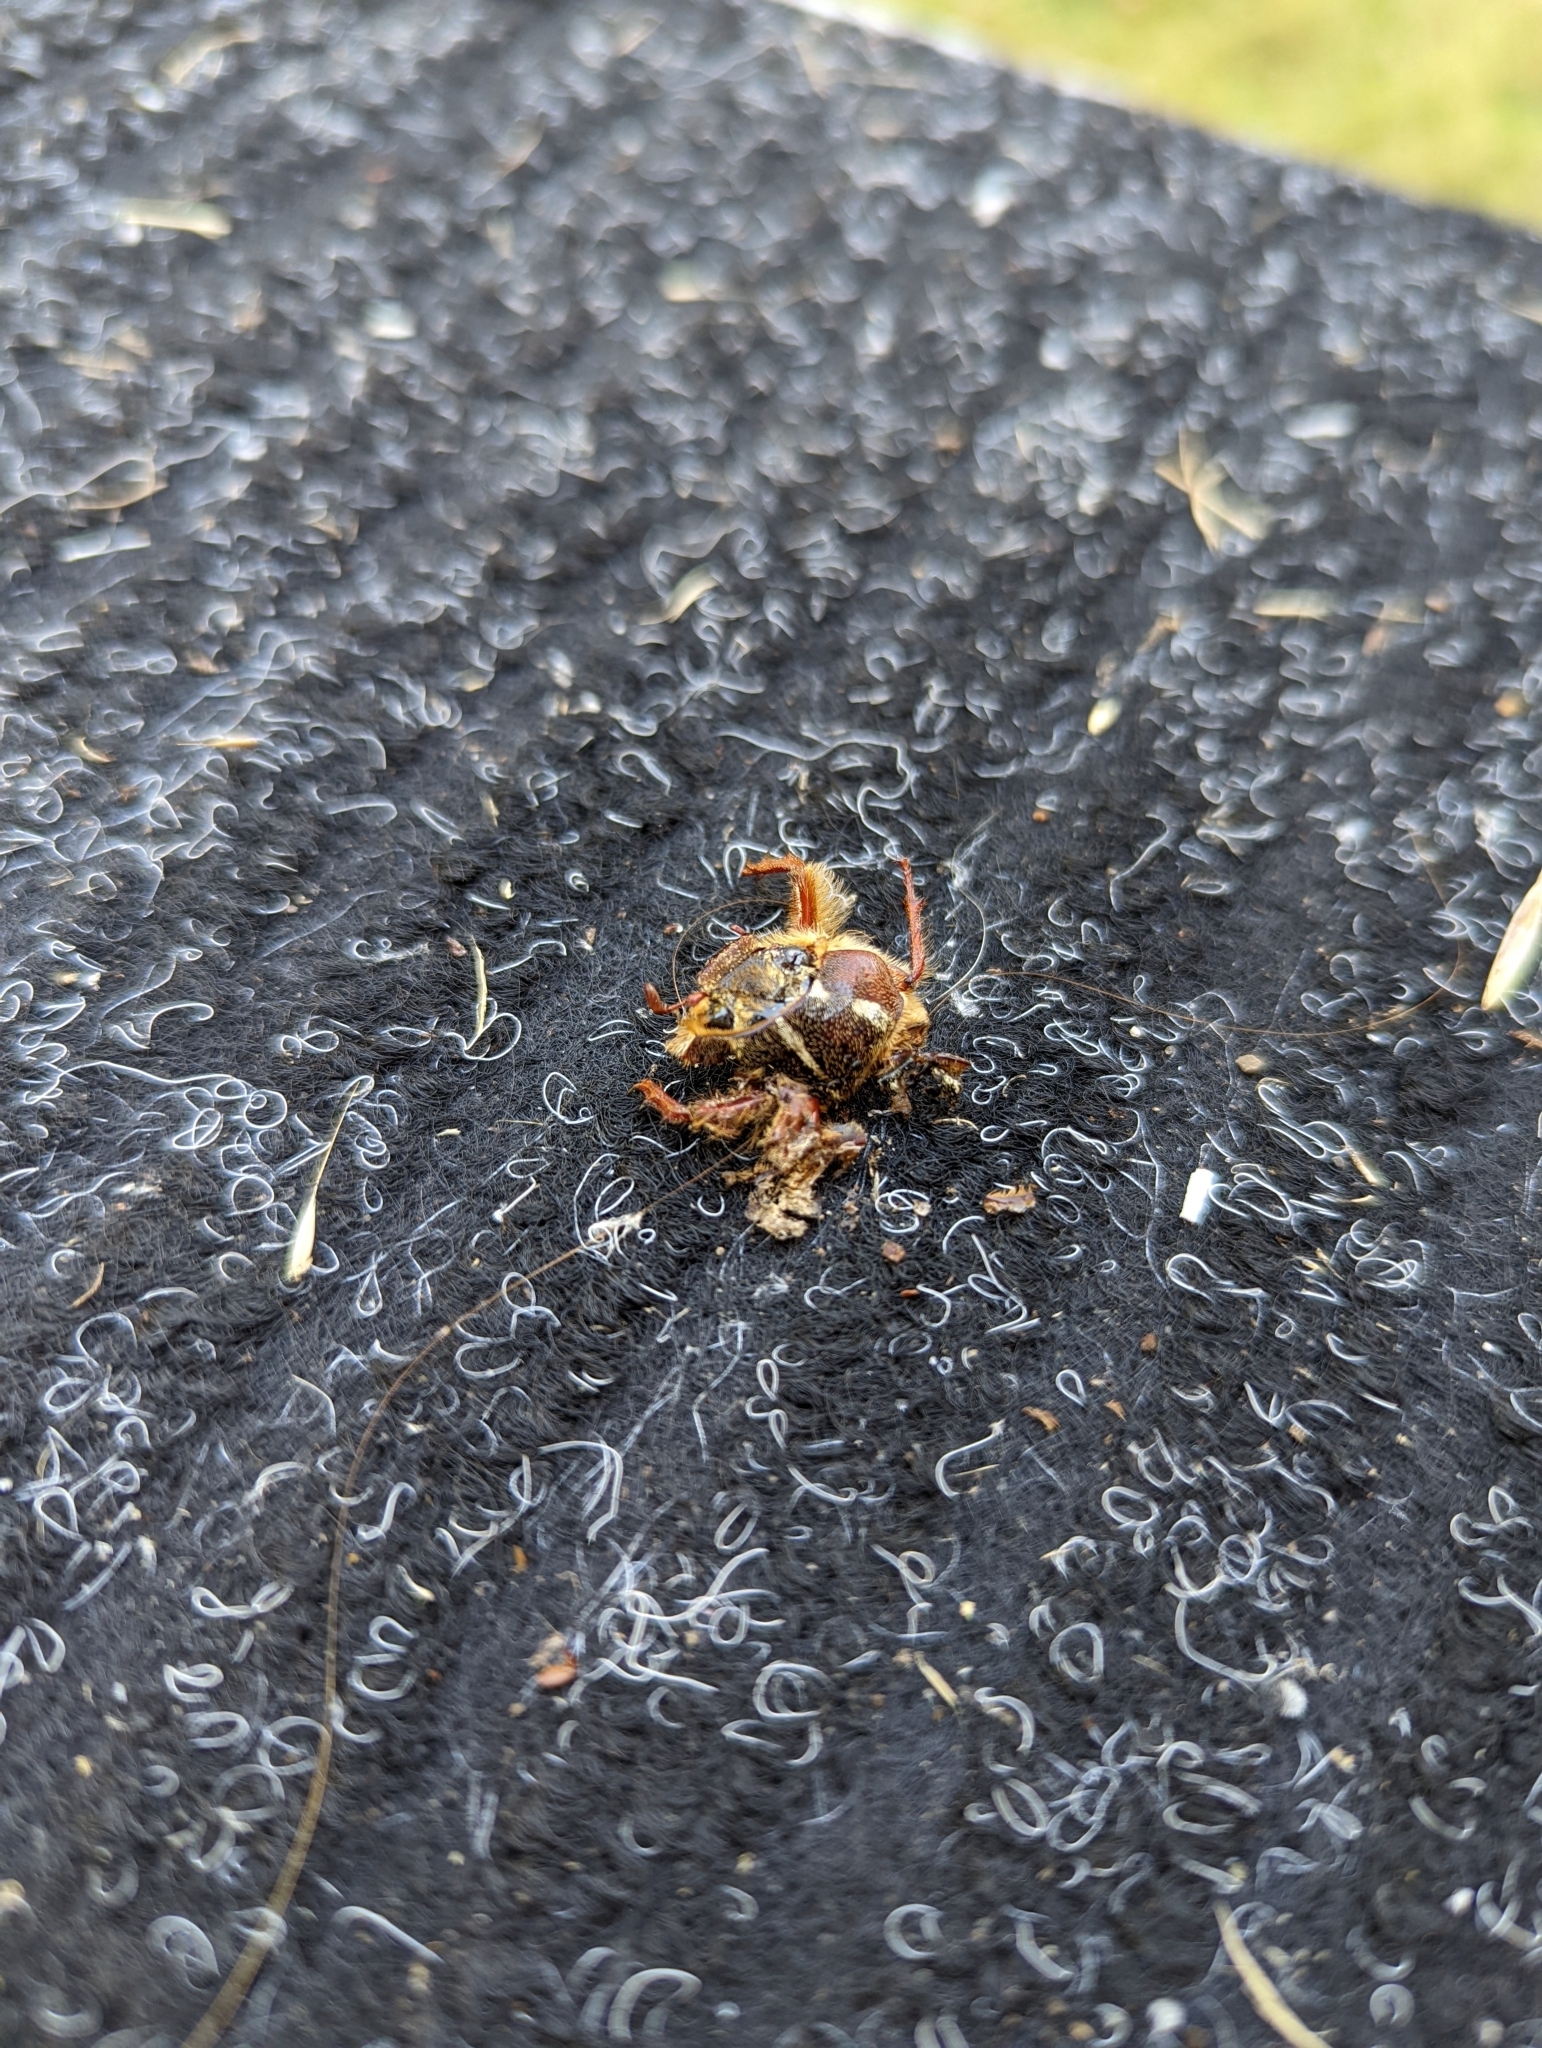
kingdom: Animalia
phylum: Arthropoda
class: Insecta
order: Coleoptera
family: Scarabaeidae
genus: Polyphylla
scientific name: Polyphylla crinita
